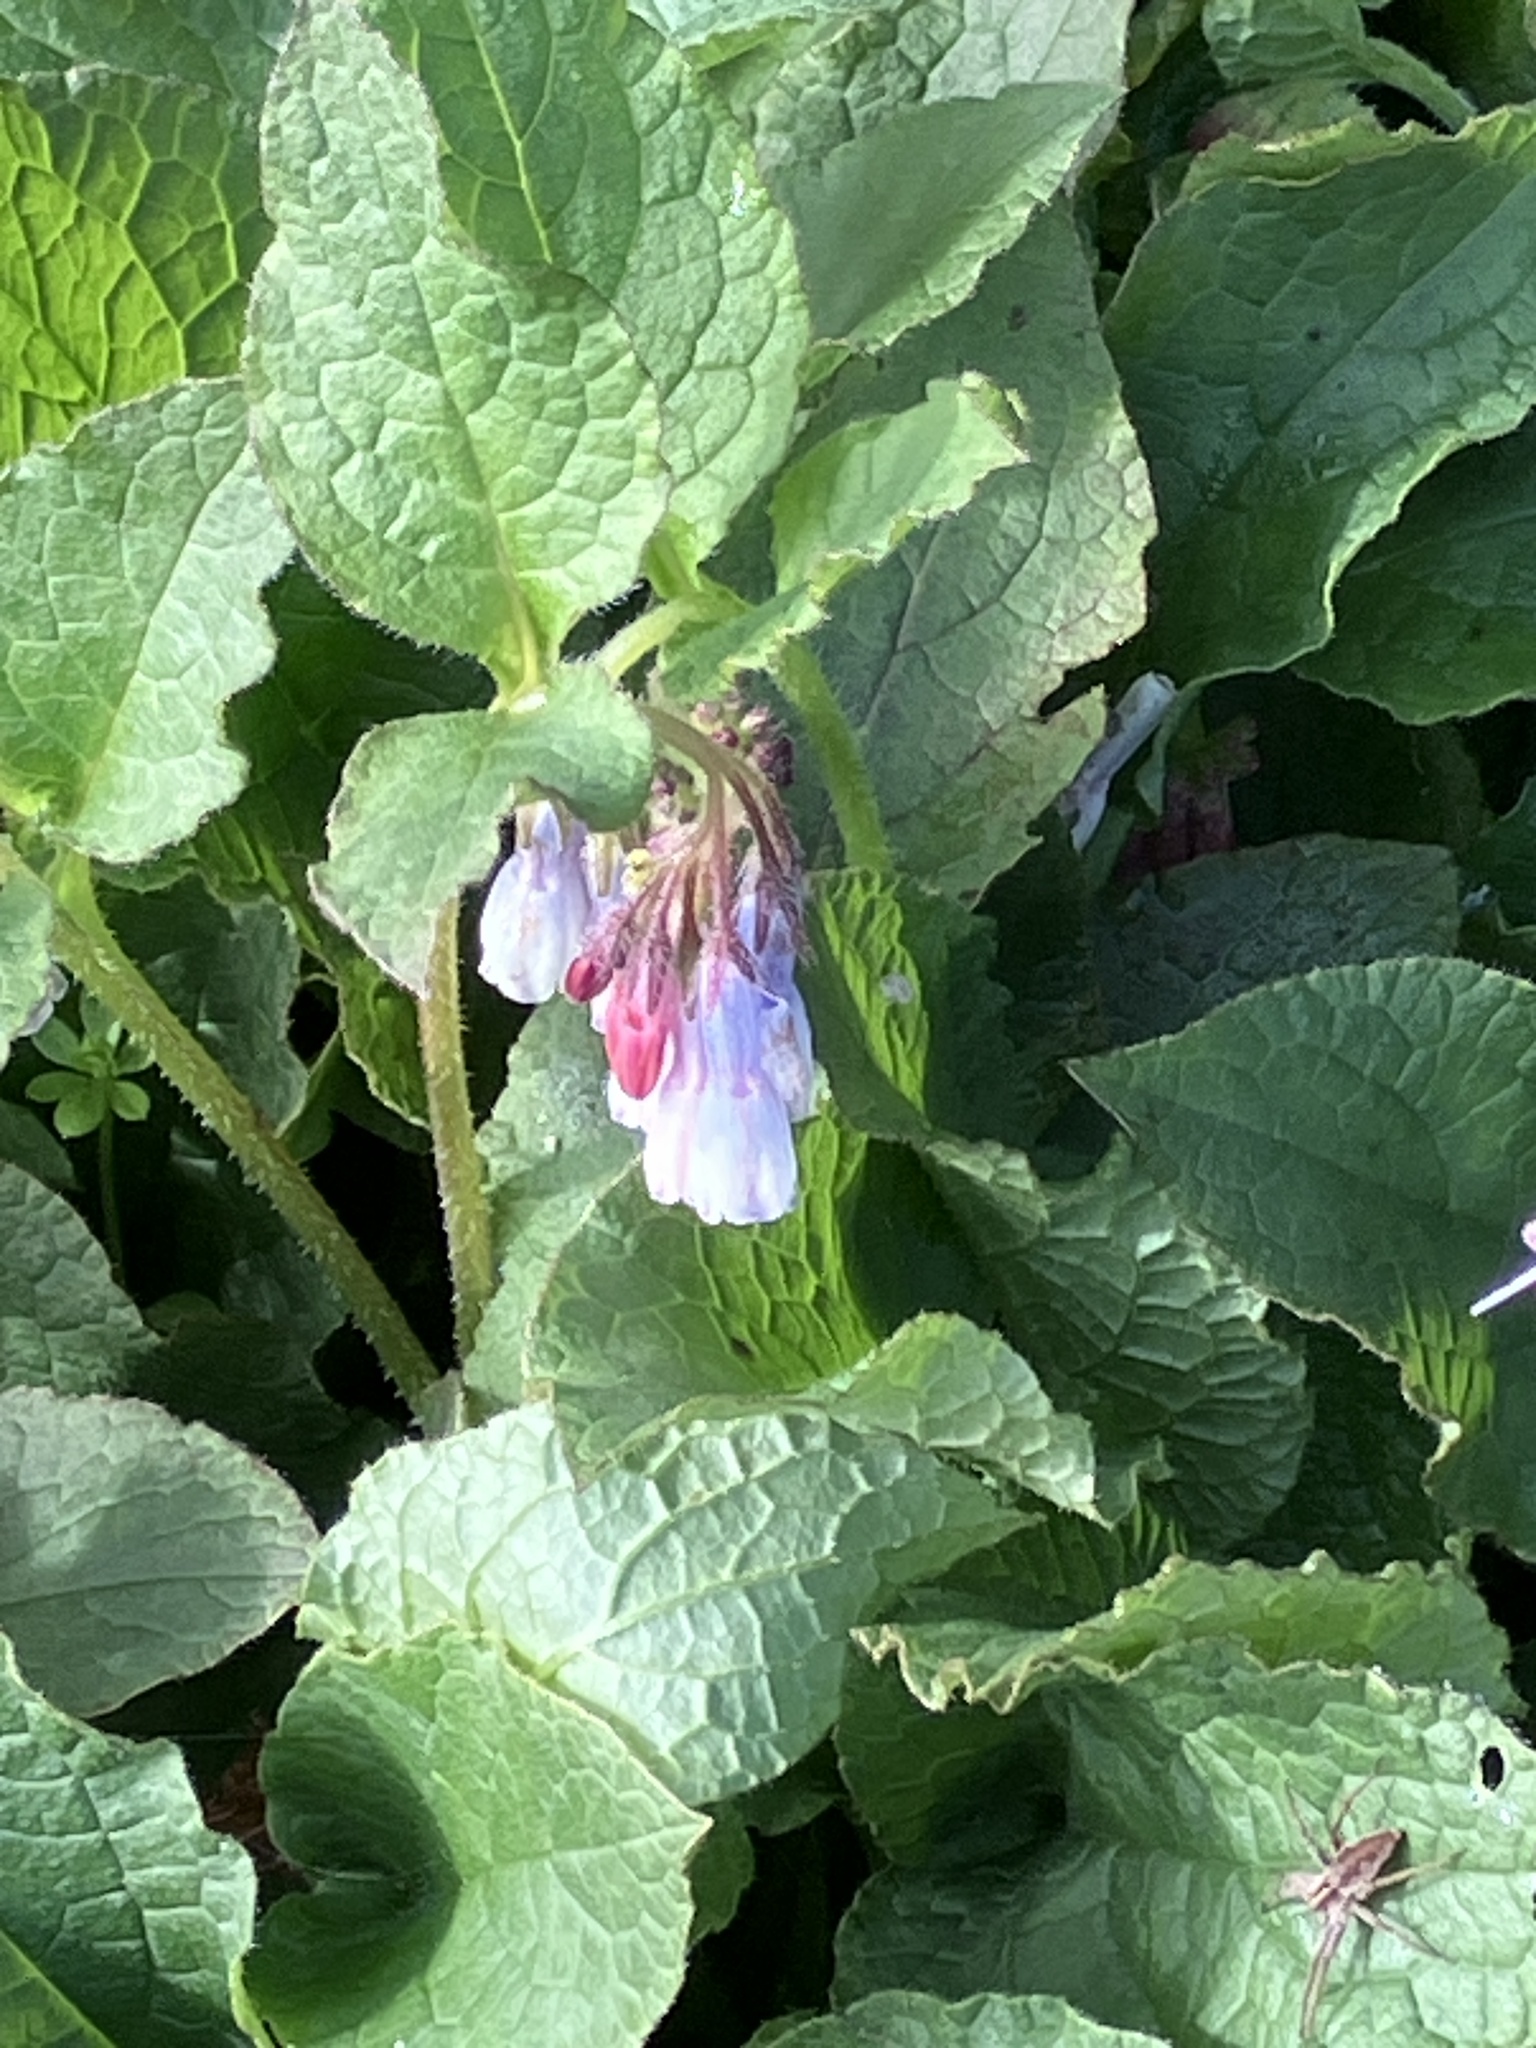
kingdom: Plantae
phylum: Tracheophyta
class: Magnoliopsida
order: Boraginales
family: Boraginaceae
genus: Symphytum
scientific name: Symphytum hidcotense
